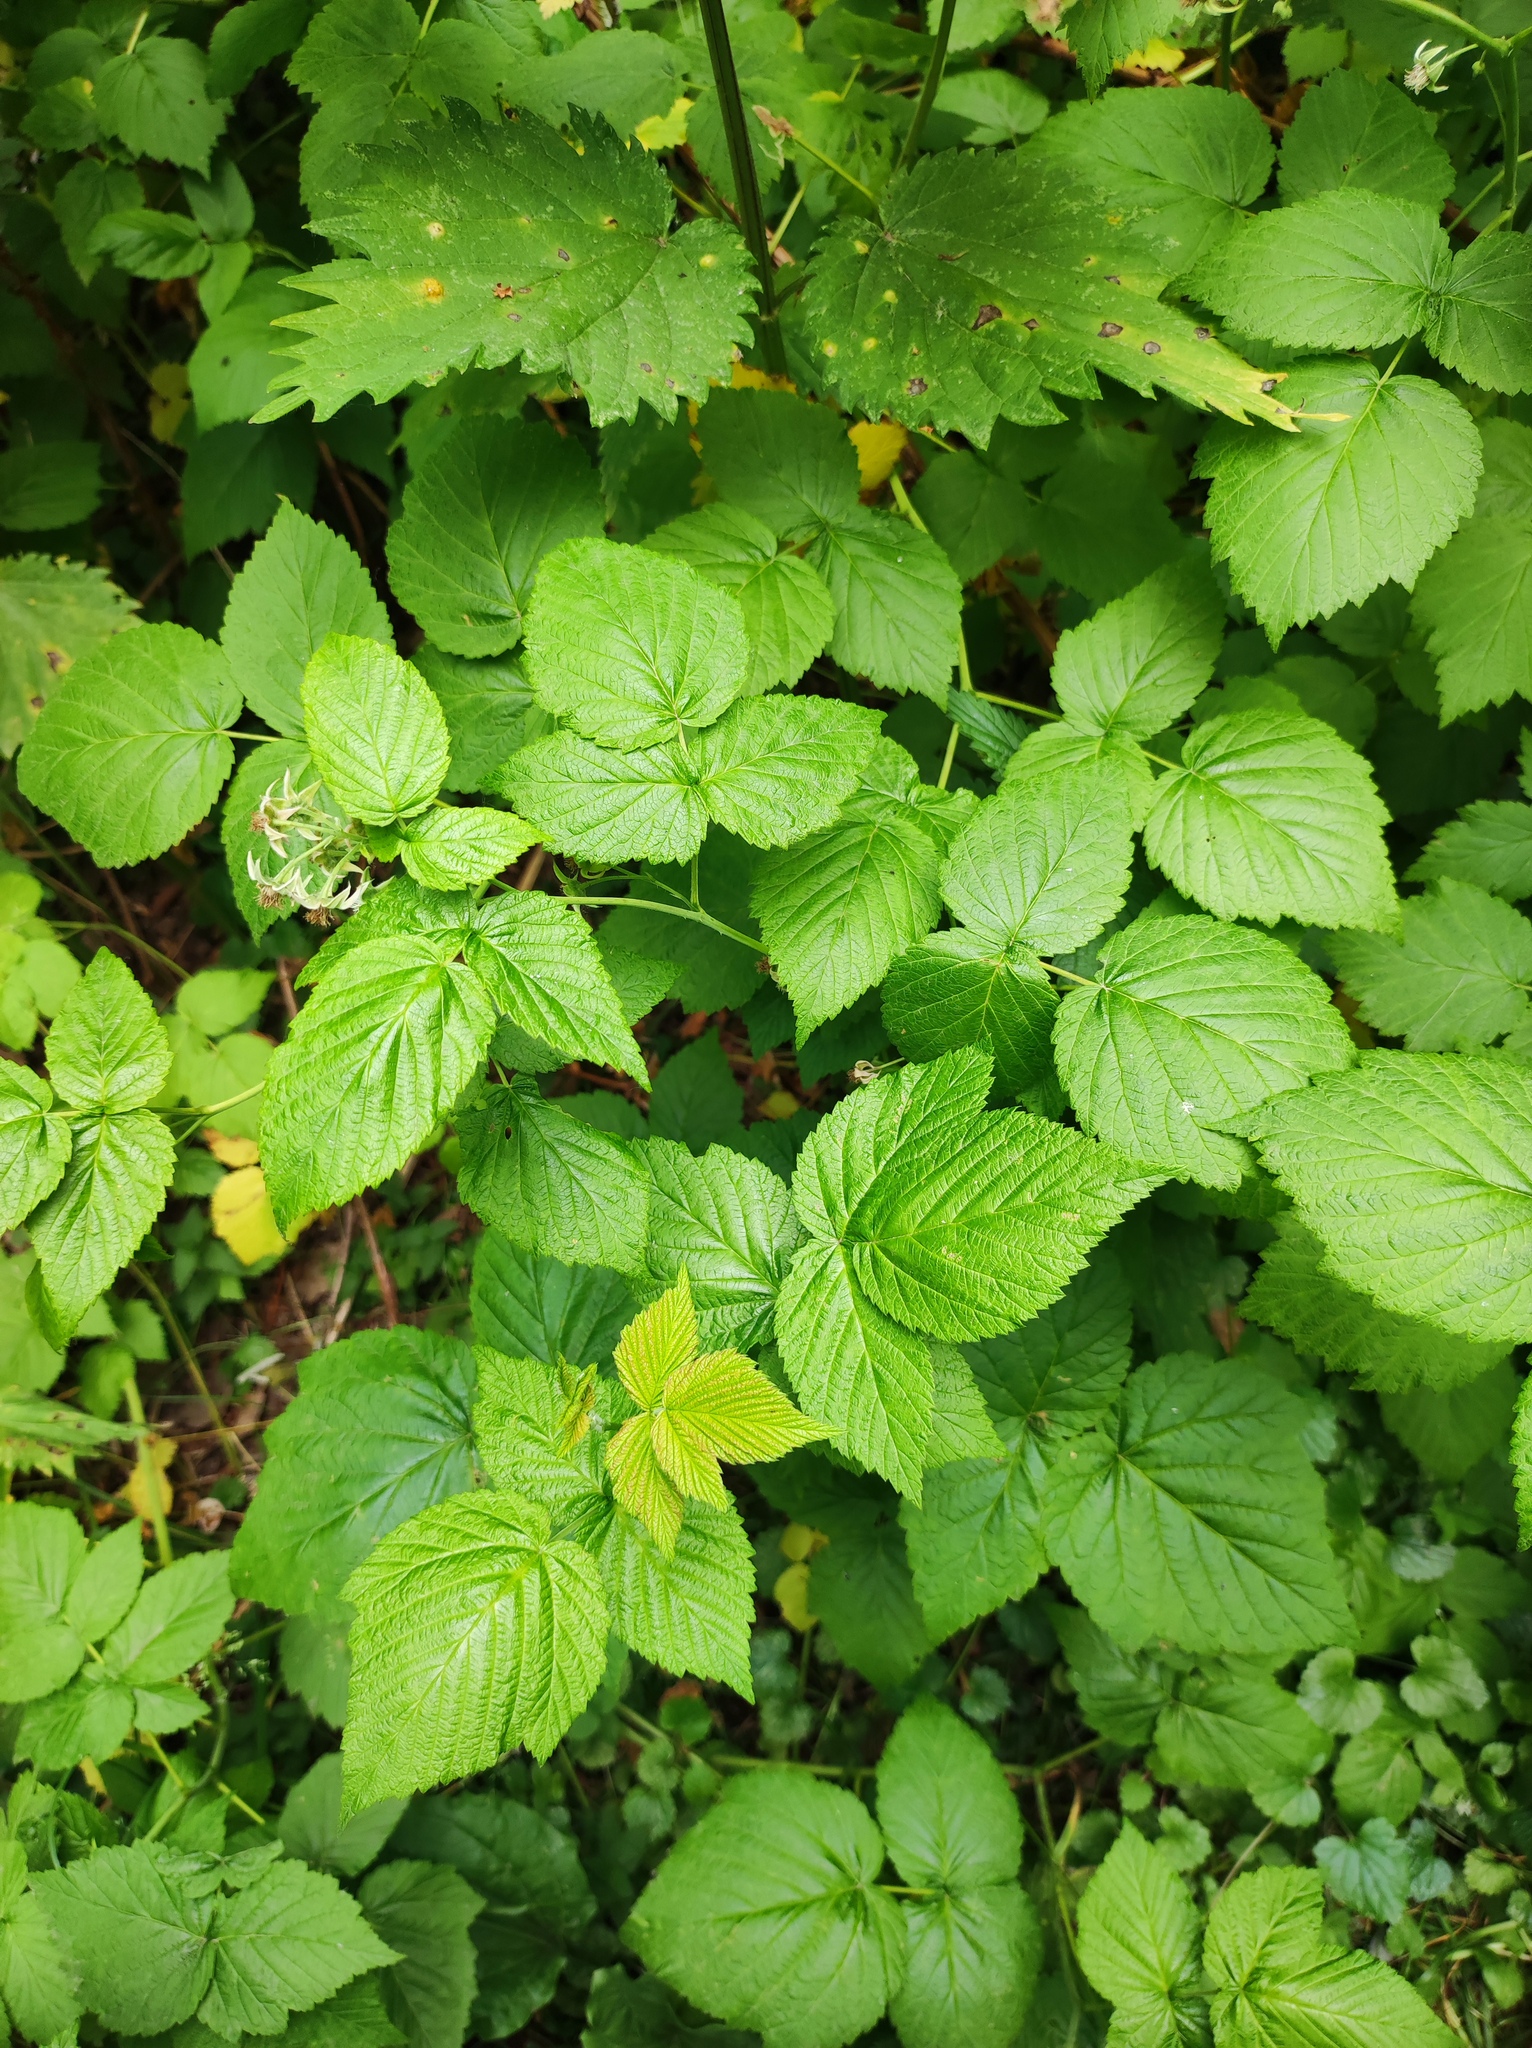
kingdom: Plantae
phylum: Tracheophyta
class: Magnoliopsida
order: Rosales
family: Rosaceae
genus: Rubus
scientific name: Rubus idaeus
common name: Raspberry
